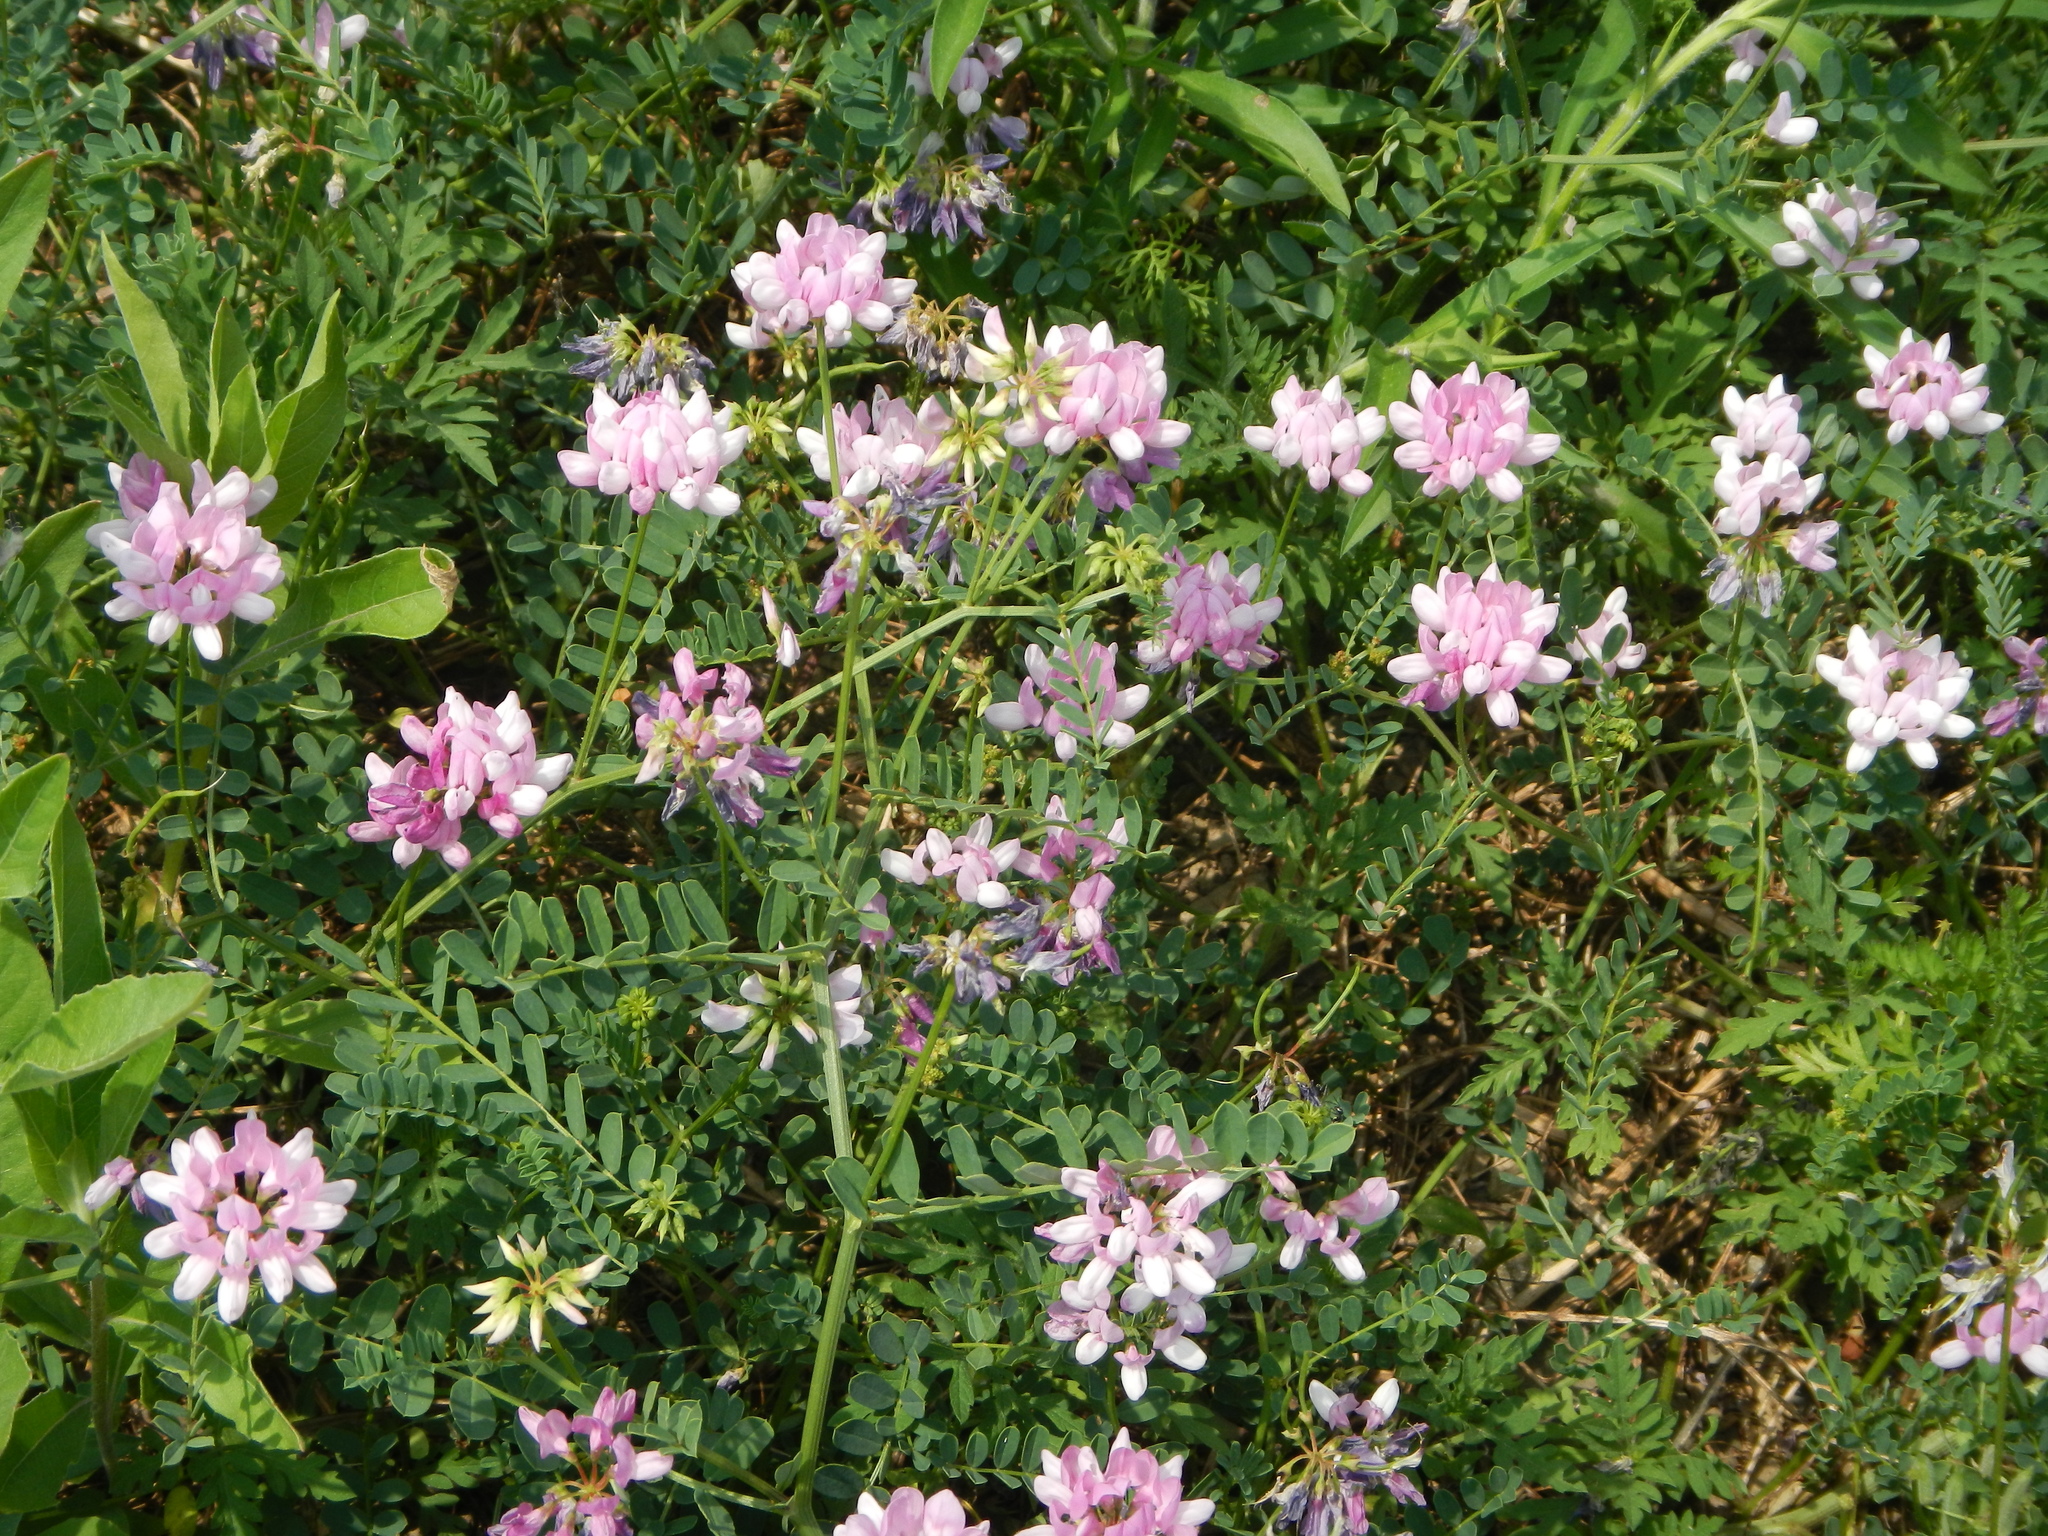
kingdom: Plantae
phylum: Tracheophyta
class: Magnoliopsida
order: Fabales
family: Fabaceae
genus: Coronilla
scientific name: Coronilla varia
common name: Crownvetch
